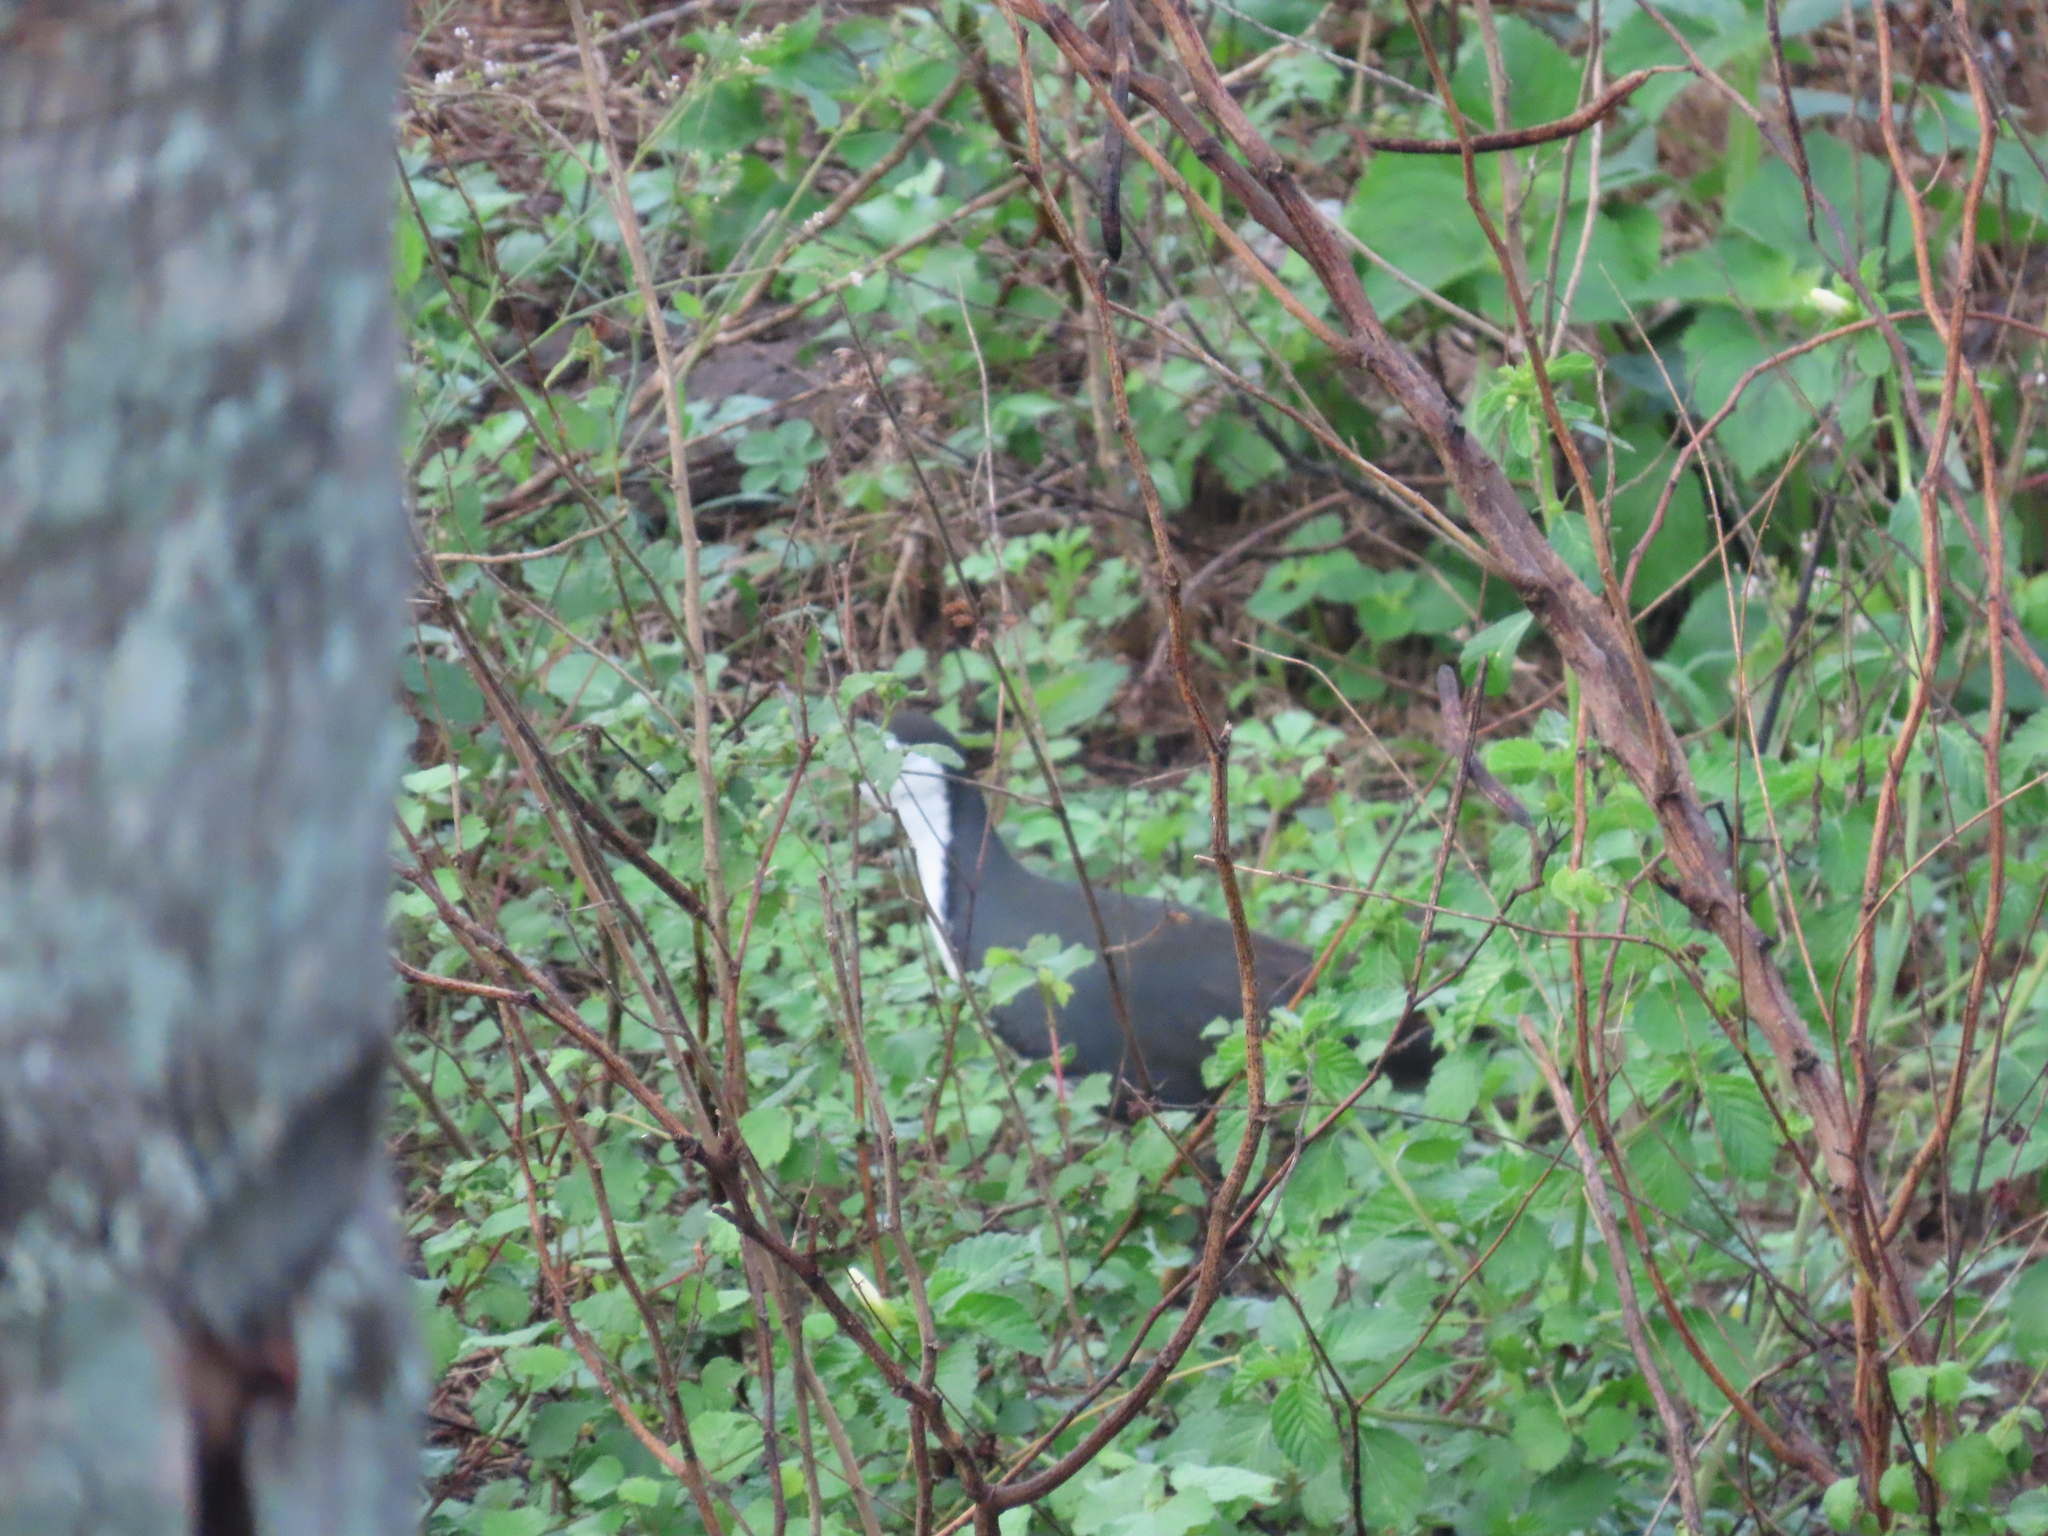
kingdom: Animalia
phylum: Chordata
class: Aves
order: Gruiformes
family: Rallidae
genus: Amaurornis
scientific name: Amaurornis phoenicurus
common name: White-breasted waterhen
